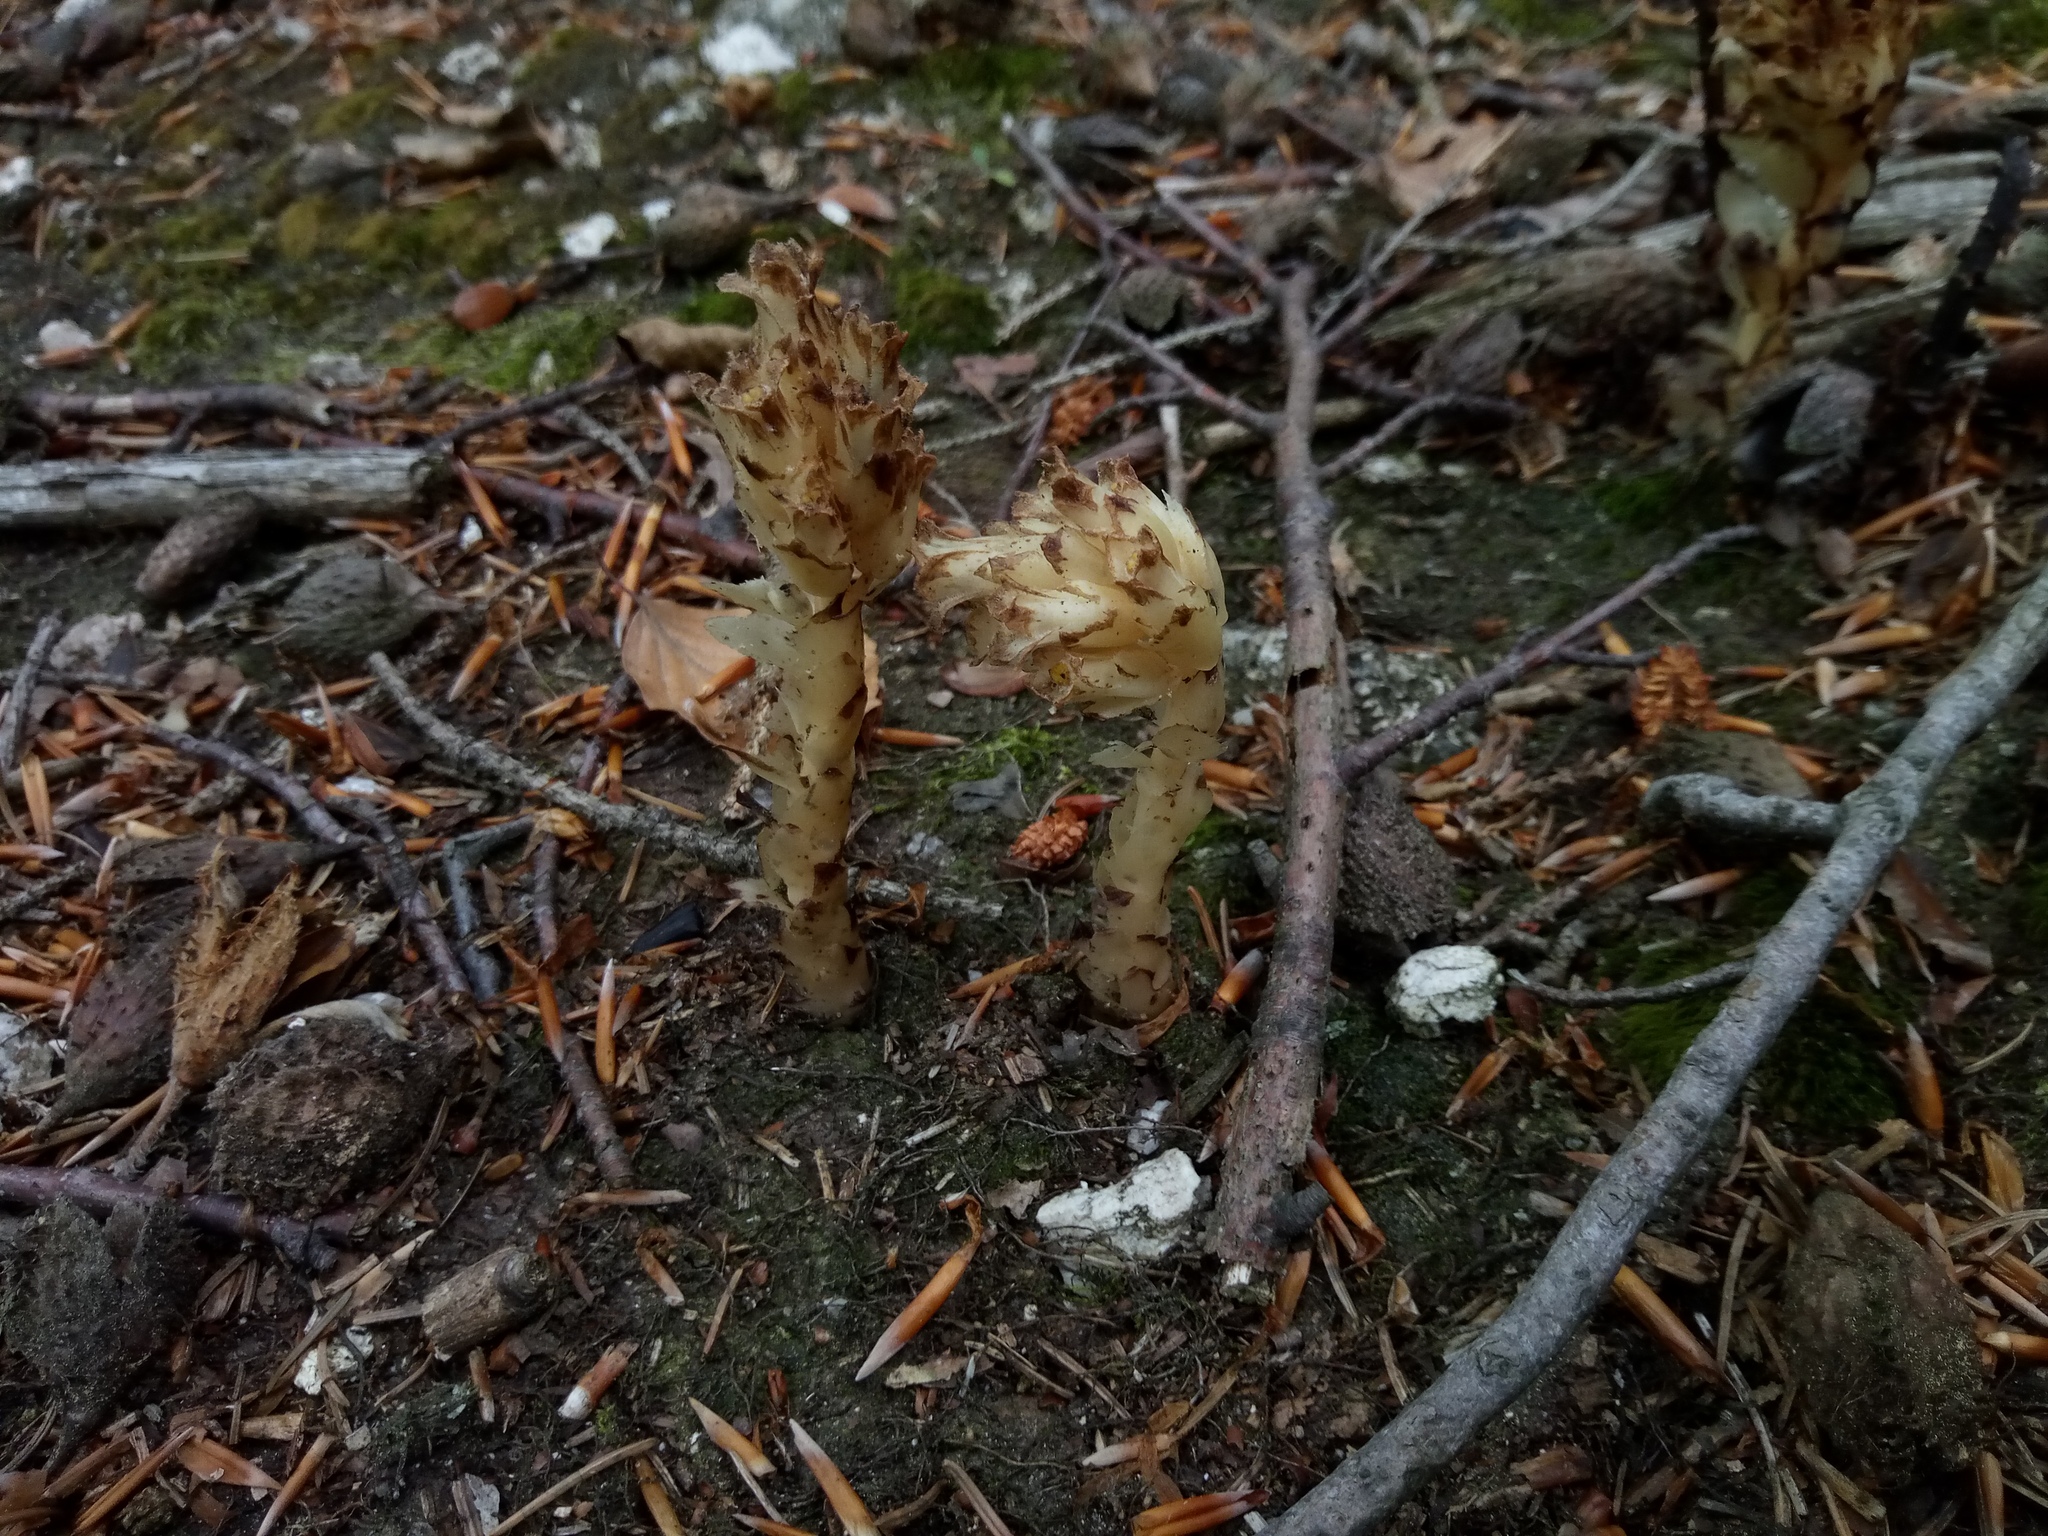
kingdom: Plantae
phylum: Tracheophyta
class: Magnoliopsida
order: Ericales
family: Ericaceae
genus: Hypopitys
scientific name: Hypopitys monotropa
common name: Yellow bird's-nest
